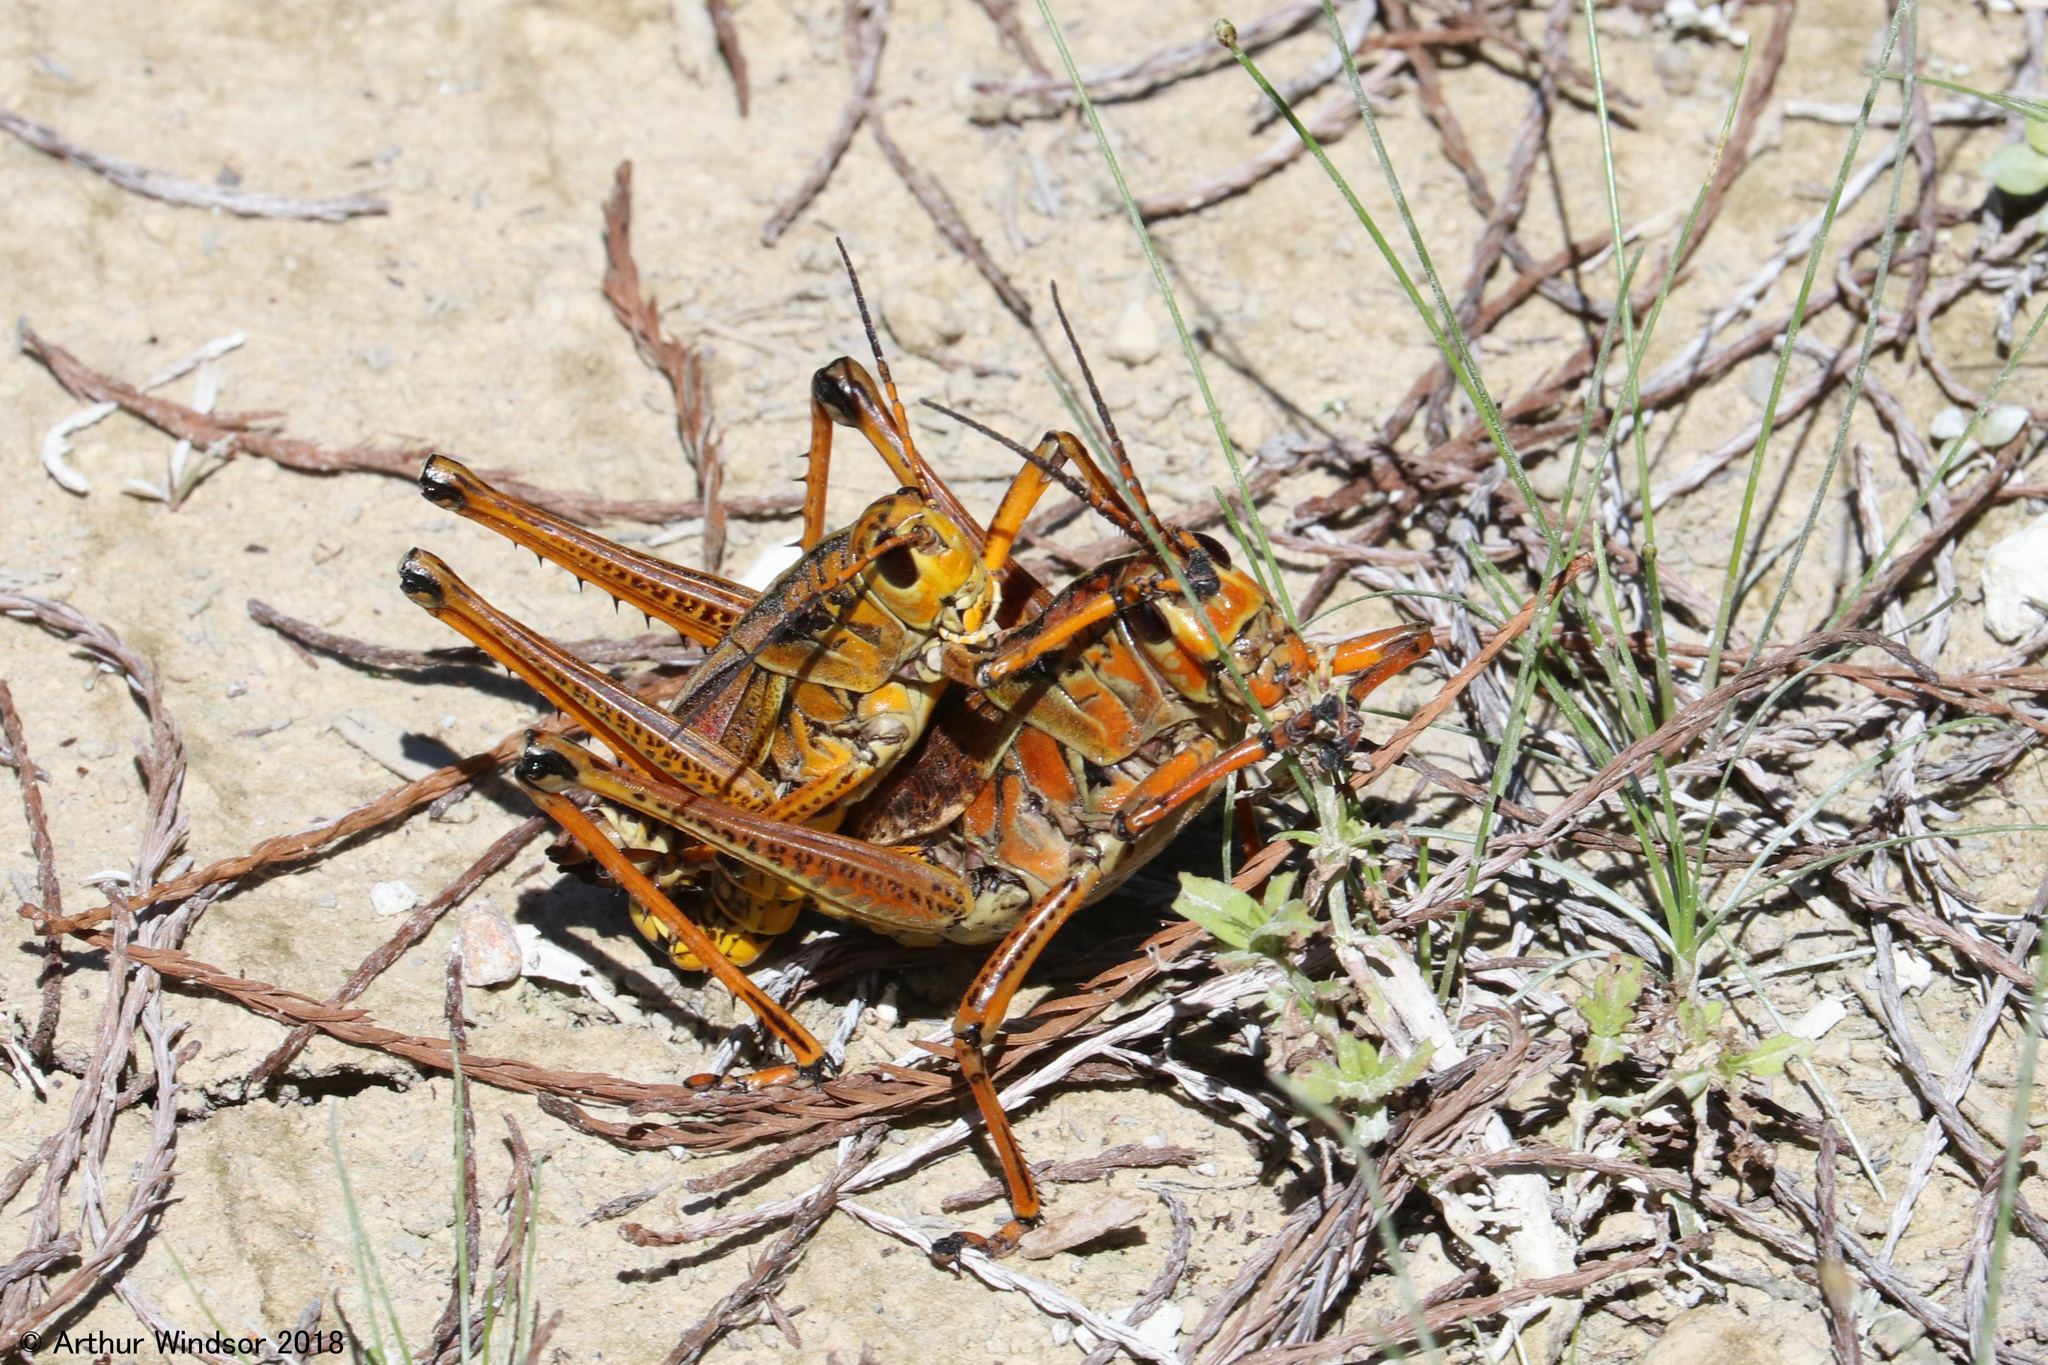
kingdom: Animalia
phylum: Arthropoda
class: Insecta
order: Orthoptera
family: Romaleidae
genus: Romalea
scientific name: Romalea microptera
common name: Eastern lubber grasshopper
